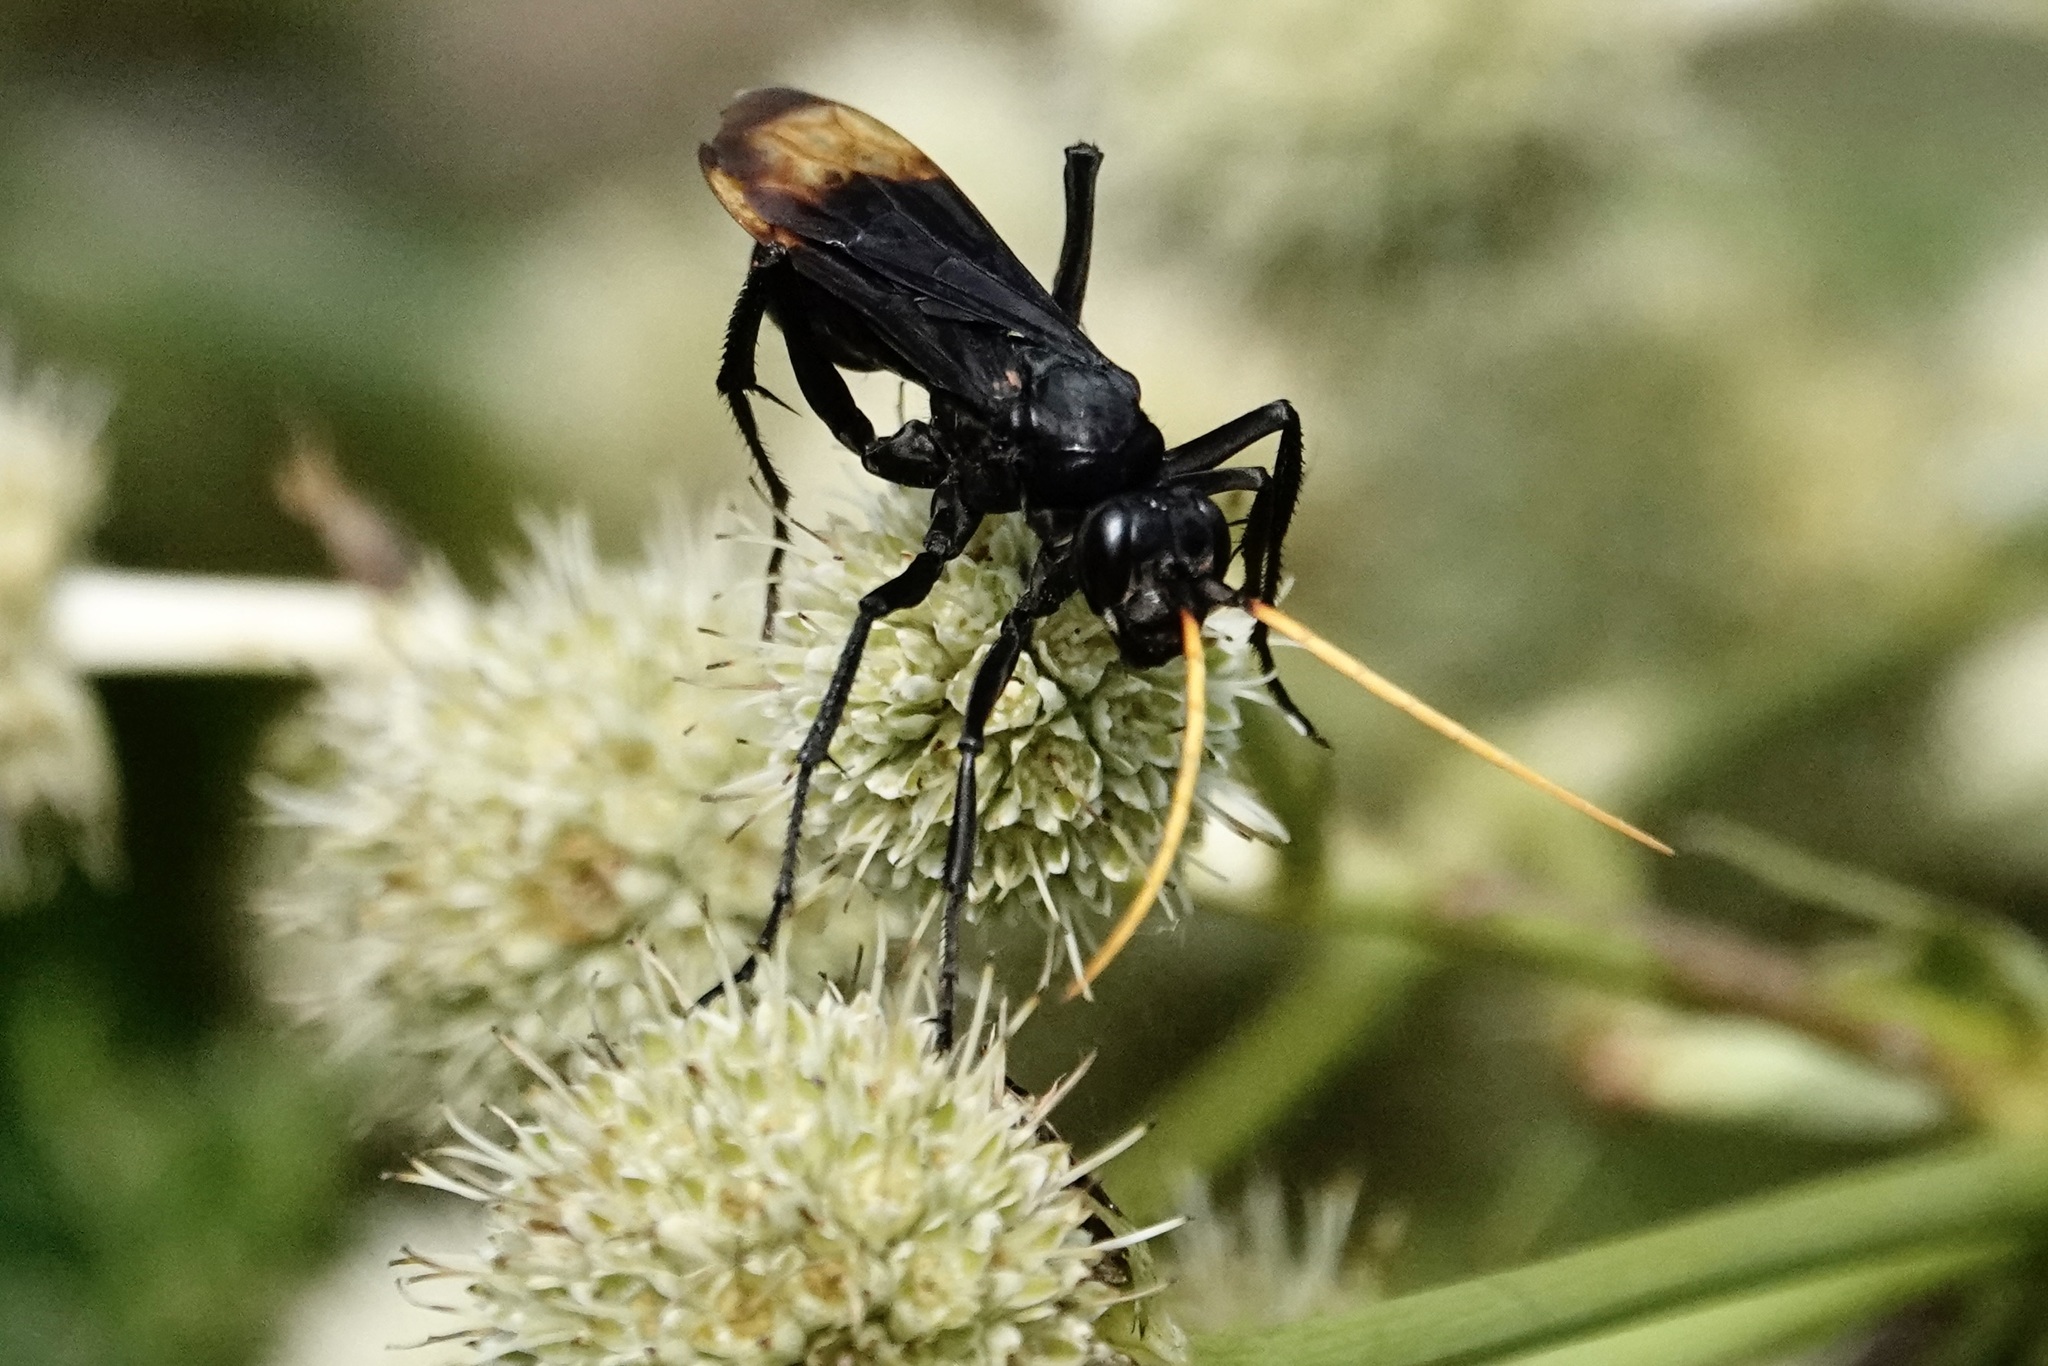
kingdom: Animalia
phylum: Arthropoda
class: Insecta
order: Hymenoptera
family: Pompilidae
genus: Entypus
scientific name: Entypus unifasciatus
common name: Eastern tawny-horned spider wasp
